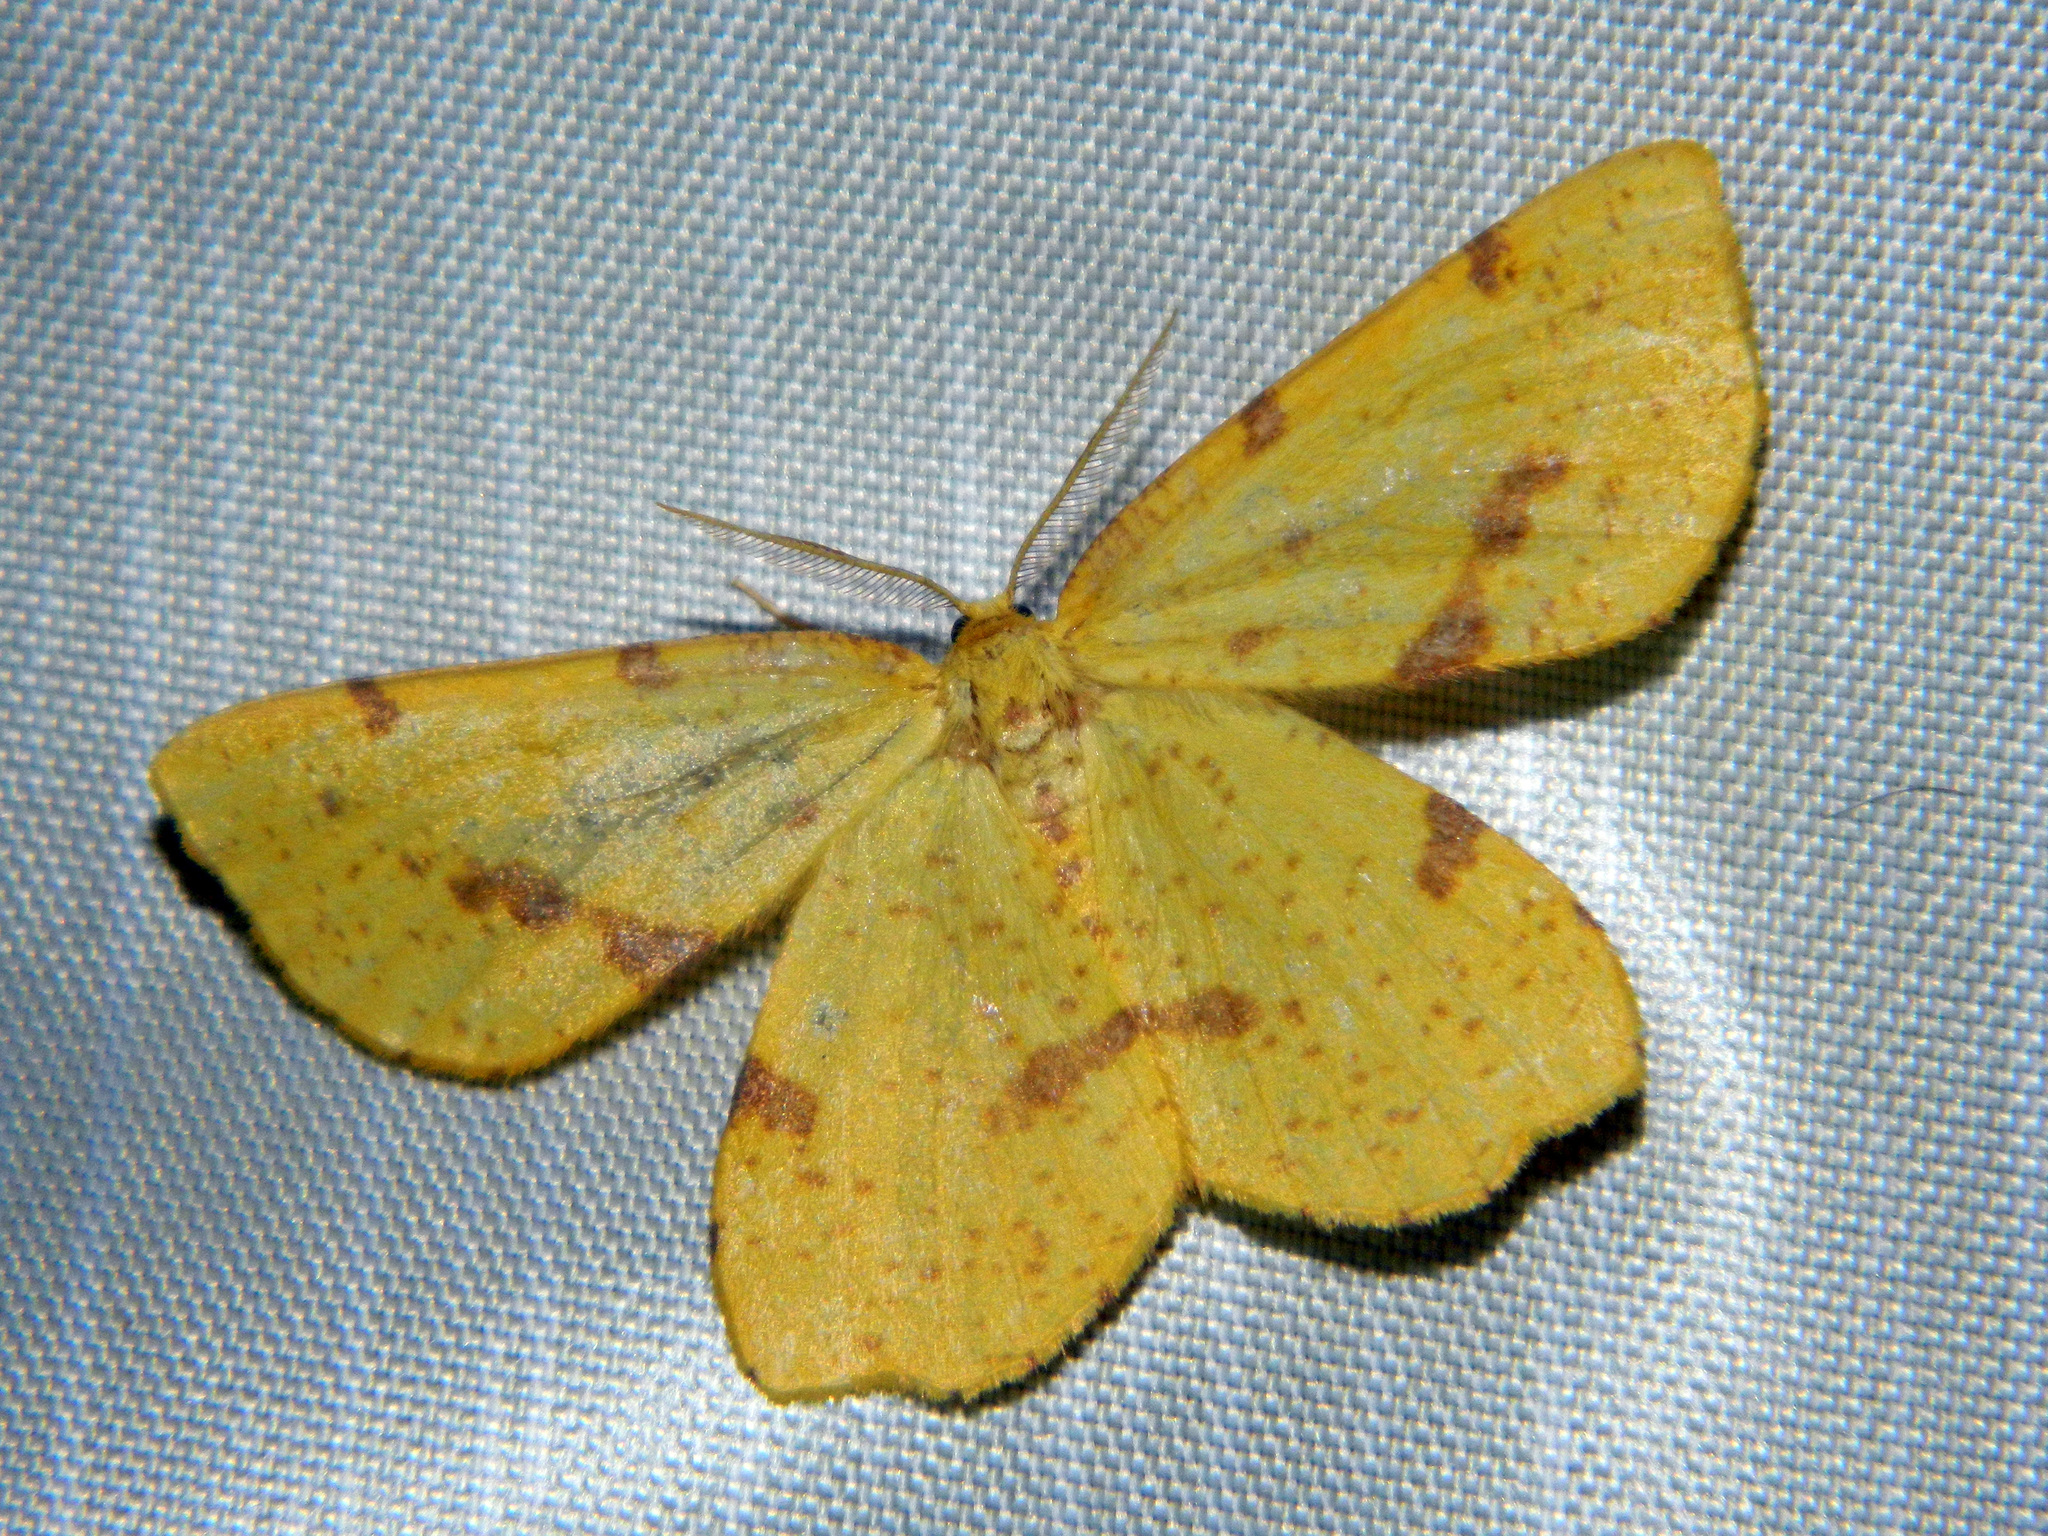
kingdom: Animalia
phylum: Arthropoda
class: Insecta
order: Lepidoptera
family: Geometridae
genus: Xanthotype
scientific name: Xanthotype
